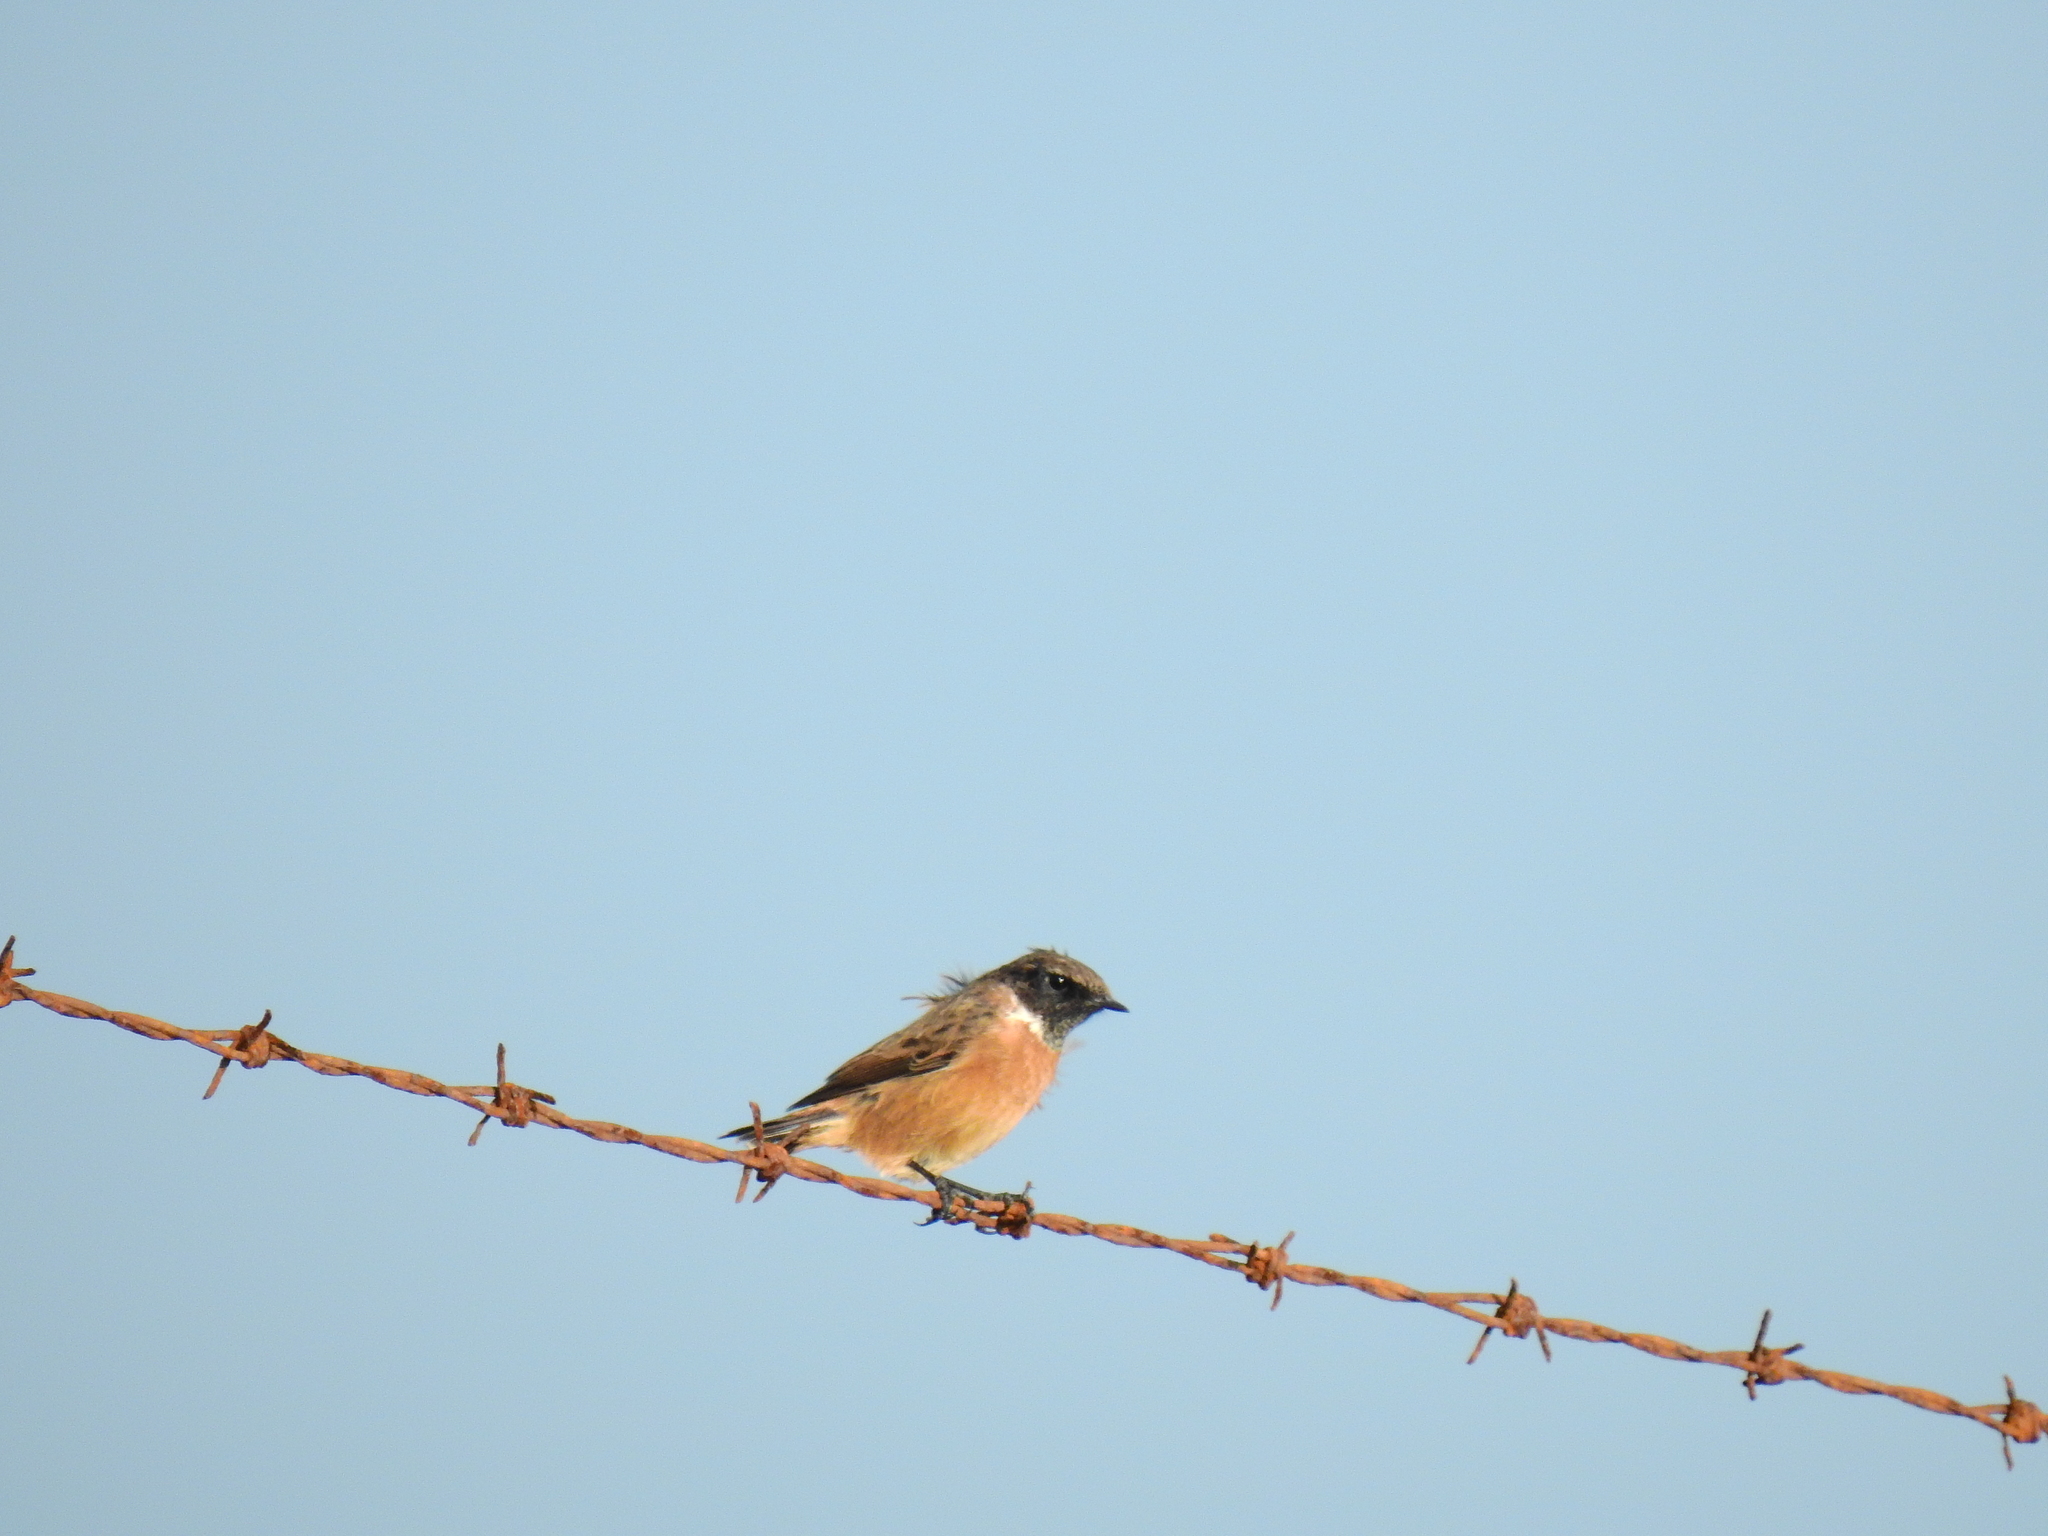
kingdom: Animalia
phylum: Chordata
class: Aves
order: Passeriformes
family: Muscicapidae
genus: Saxicola
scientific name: Saxicola rubicola
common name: European stonechat
